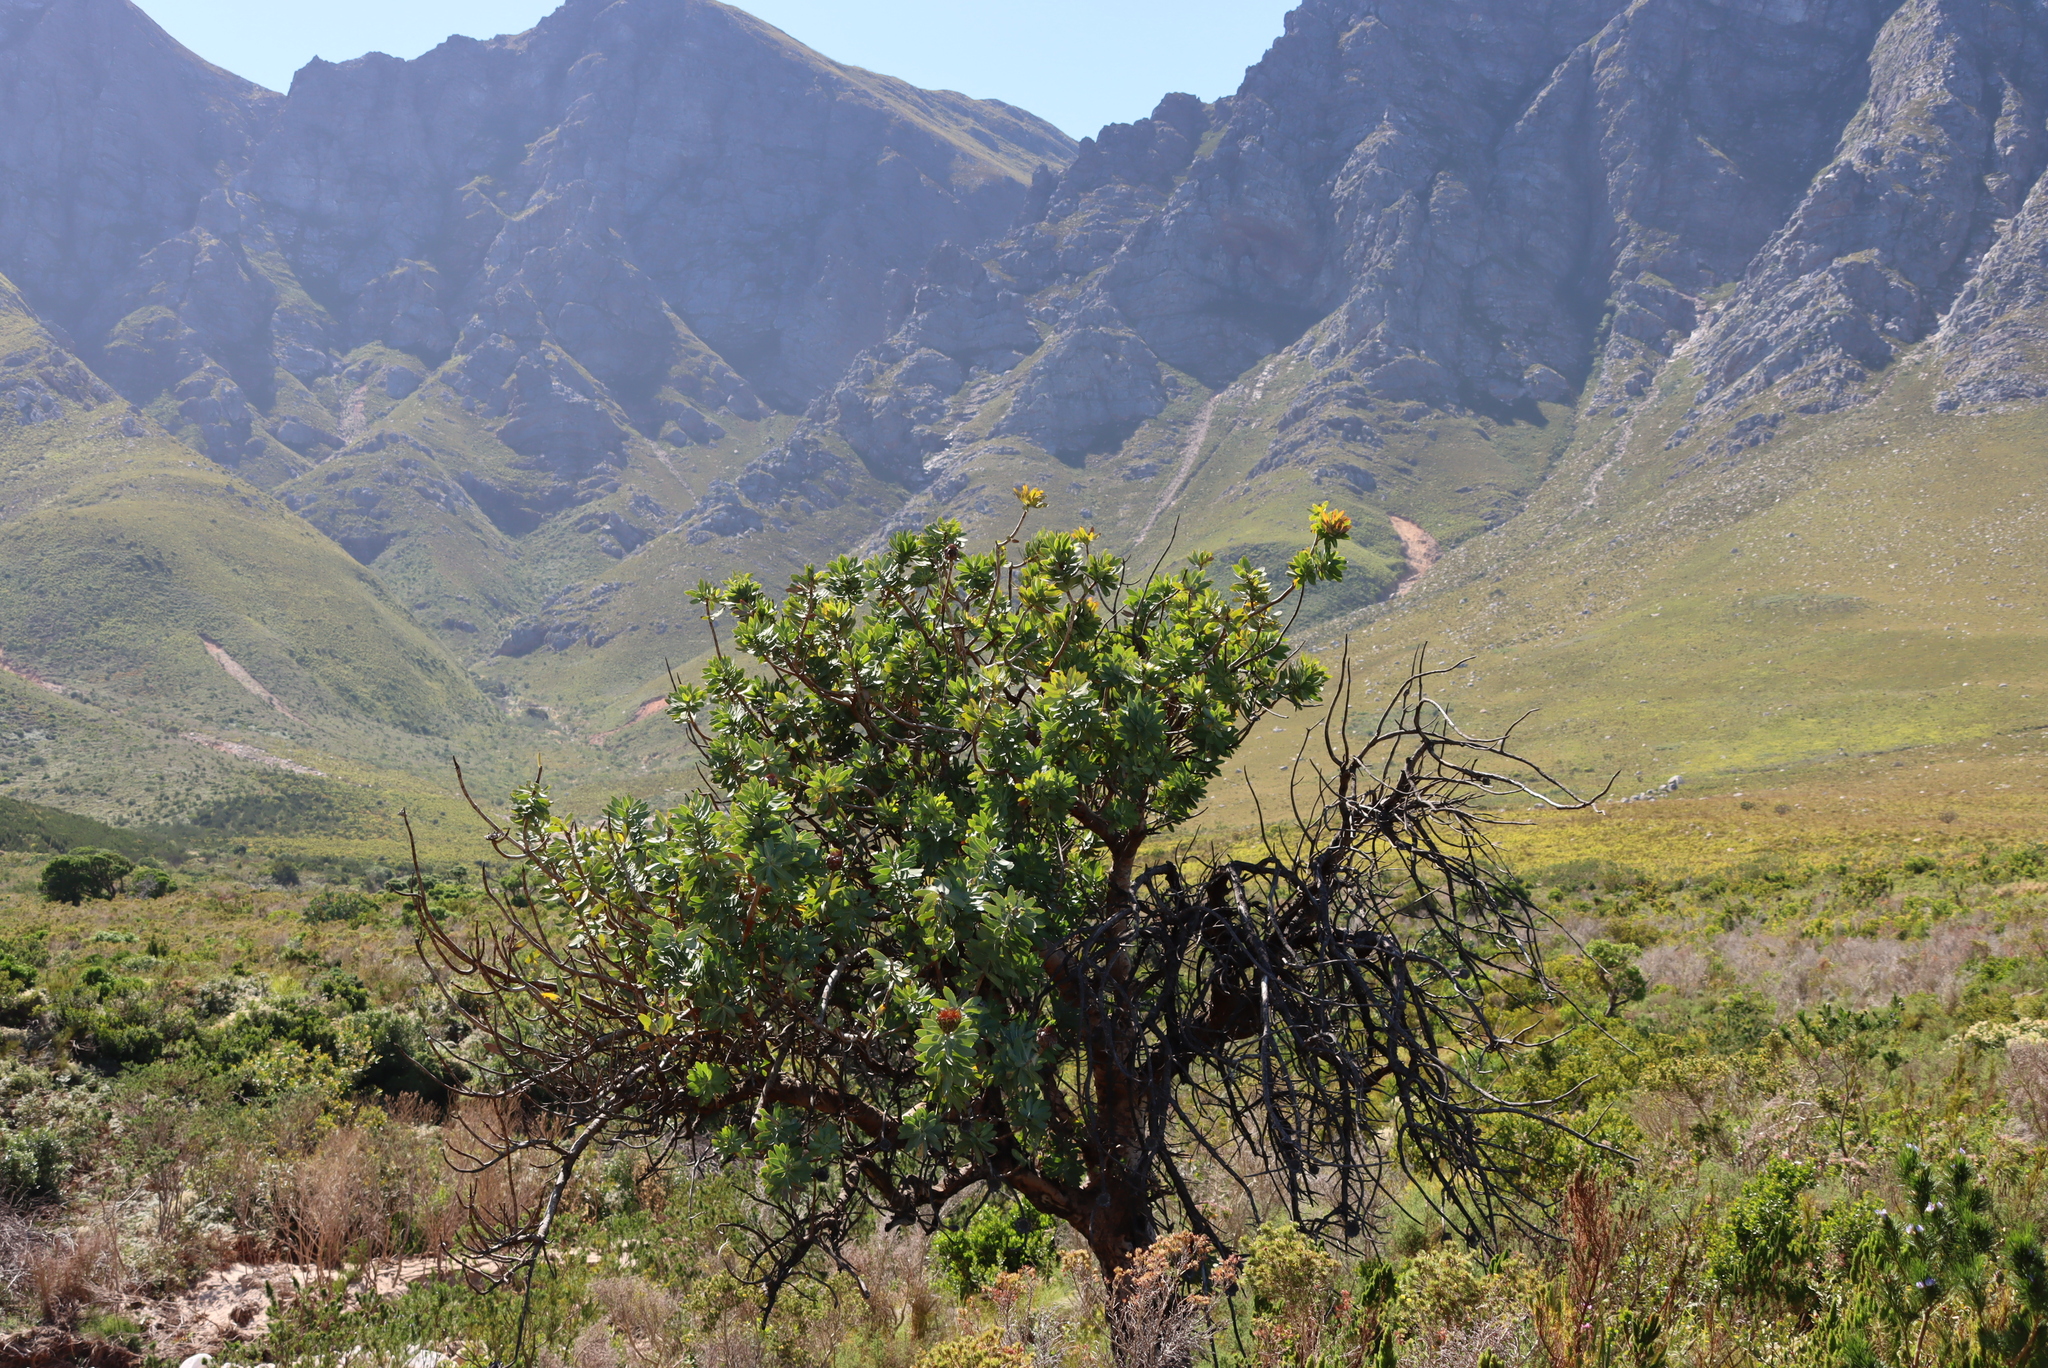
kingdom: Plantae
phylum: Tracheophyta
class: Magnoliopsida
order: Proteales
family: Proteaceae
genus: Protea
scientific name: Protea nitida
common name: Tree protea
